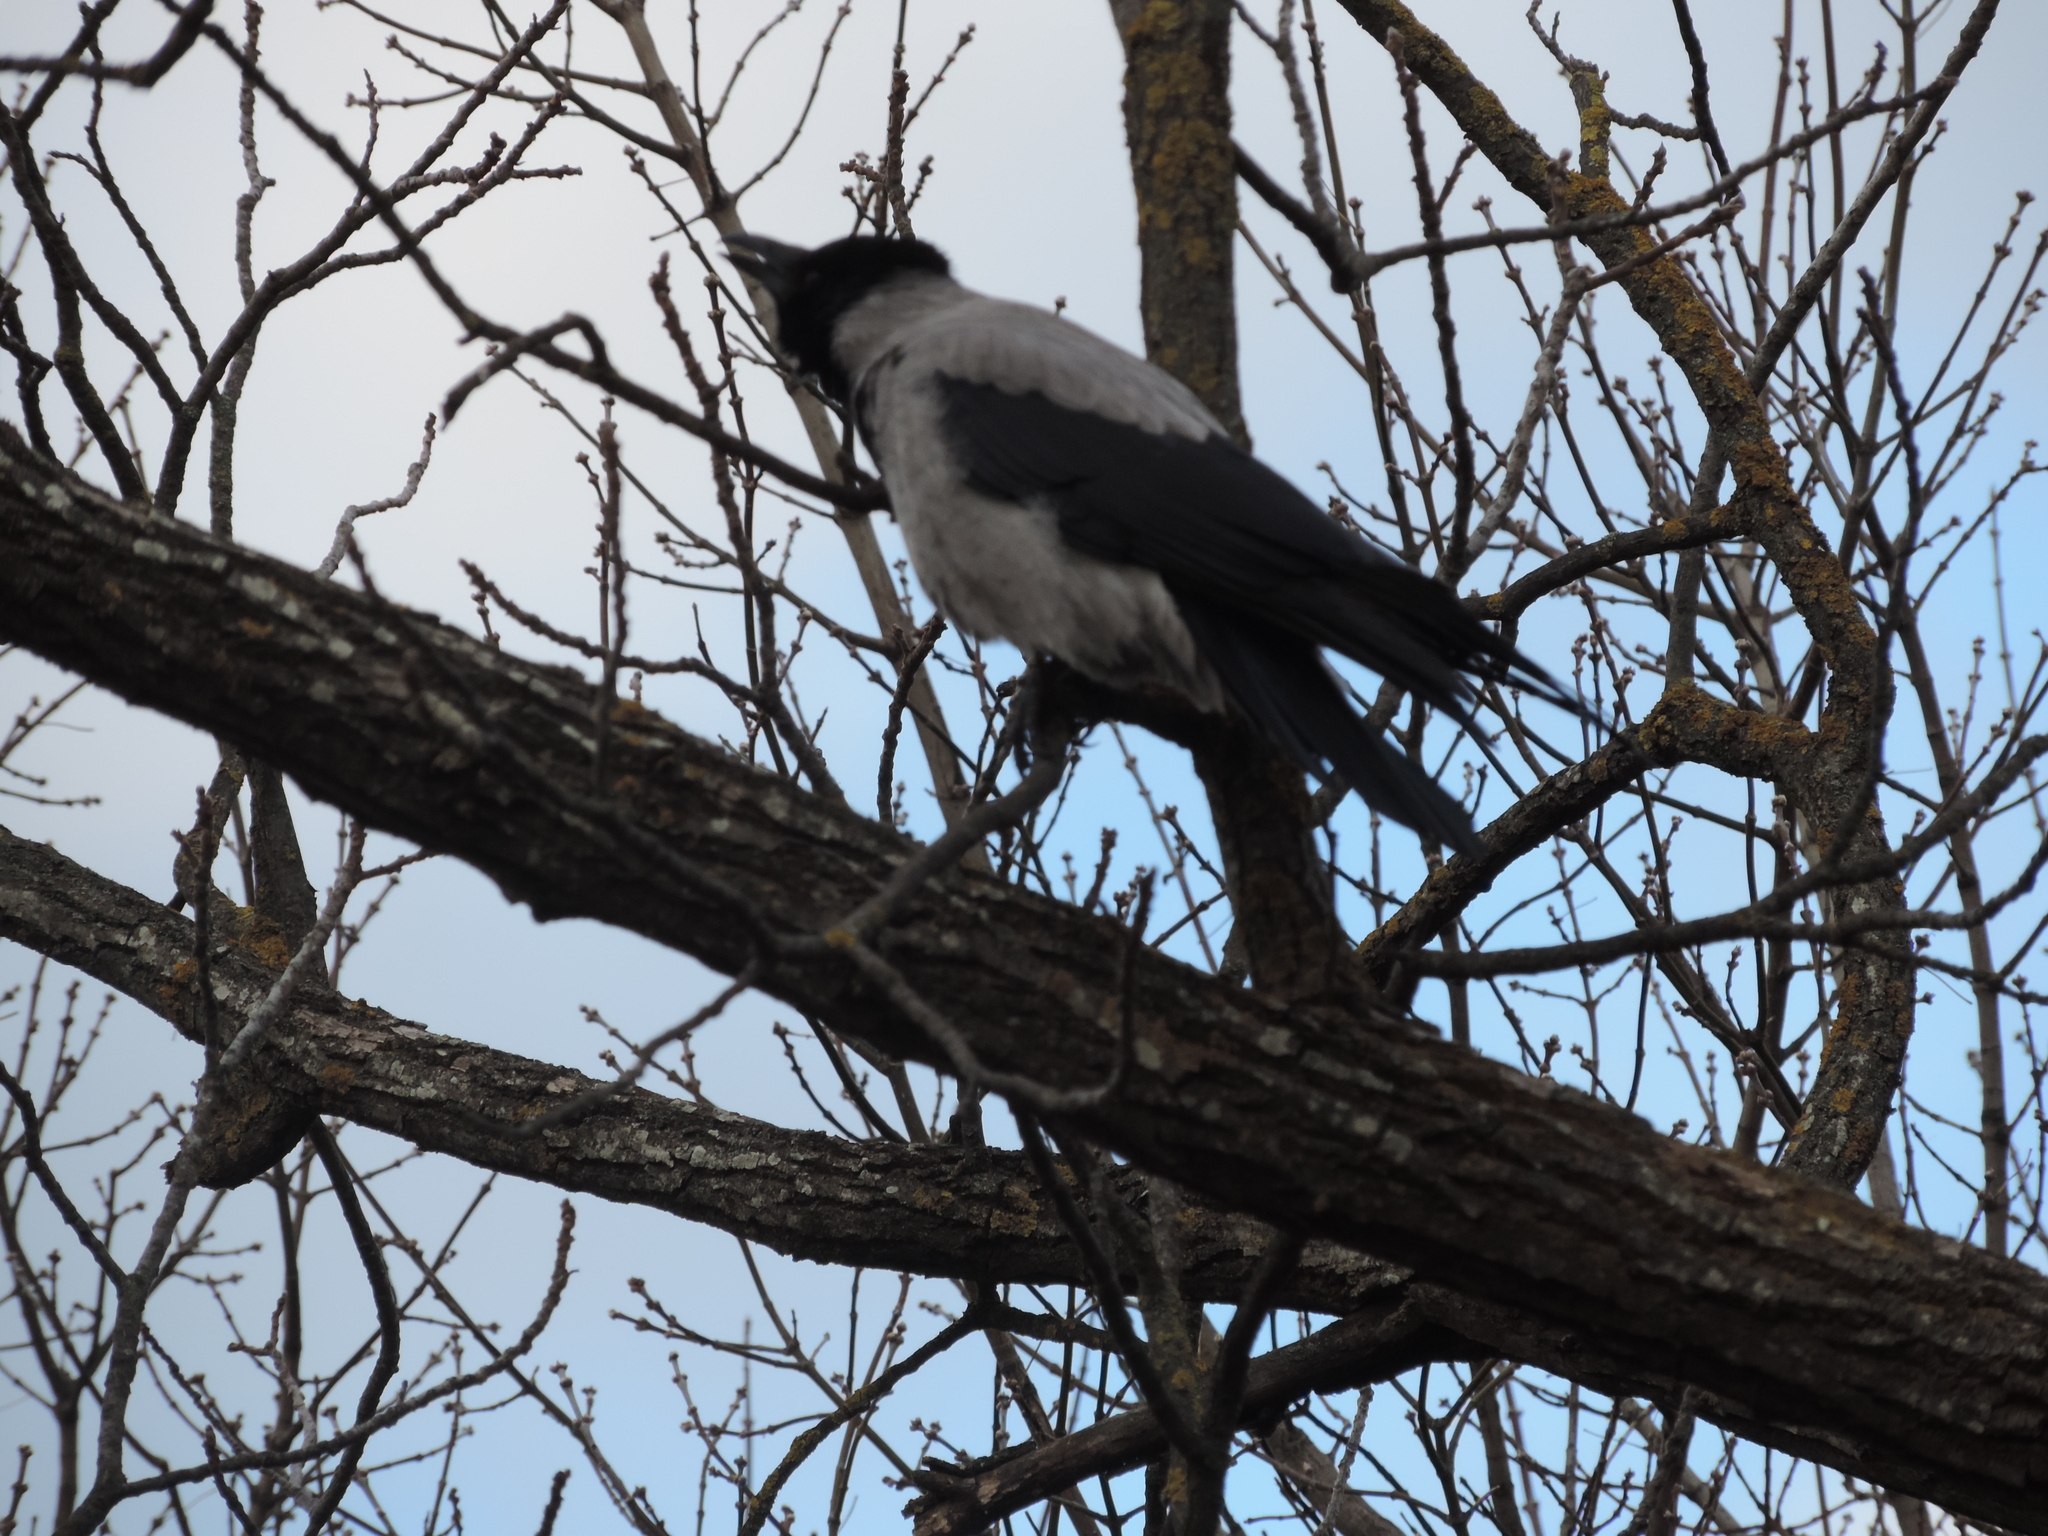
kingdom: Animalia
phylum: Chordata
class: Aves
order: Passeriformes
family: Corvidae
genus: Corvus
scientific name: Corvus cornix
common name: Hooded crow
